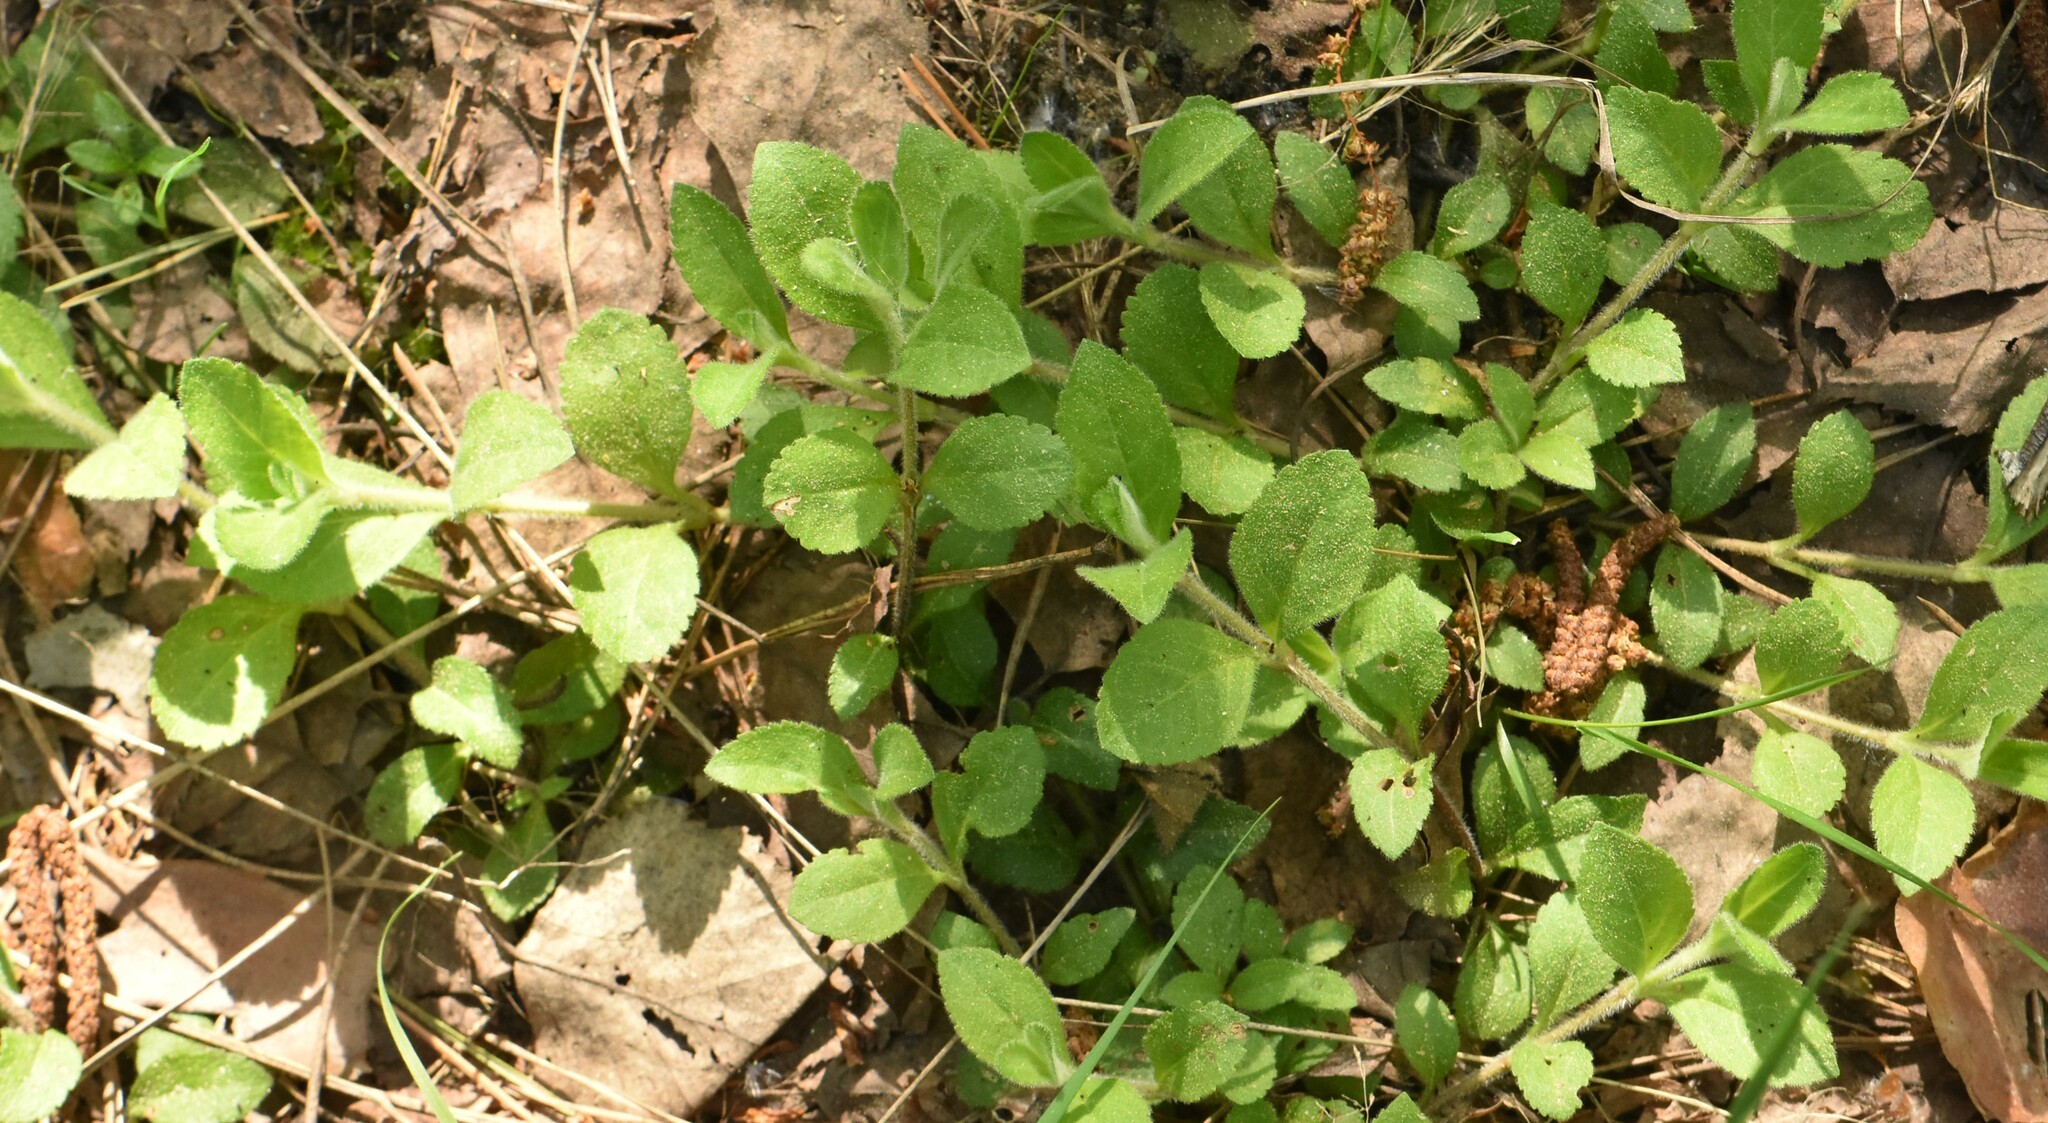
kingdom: Plantae
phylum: Tracheophyta
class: Magnoliopsida
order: Lamiales
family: Plantaginaceae
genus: Veronica
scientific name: Veronica officinalis
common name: Common speedwell
